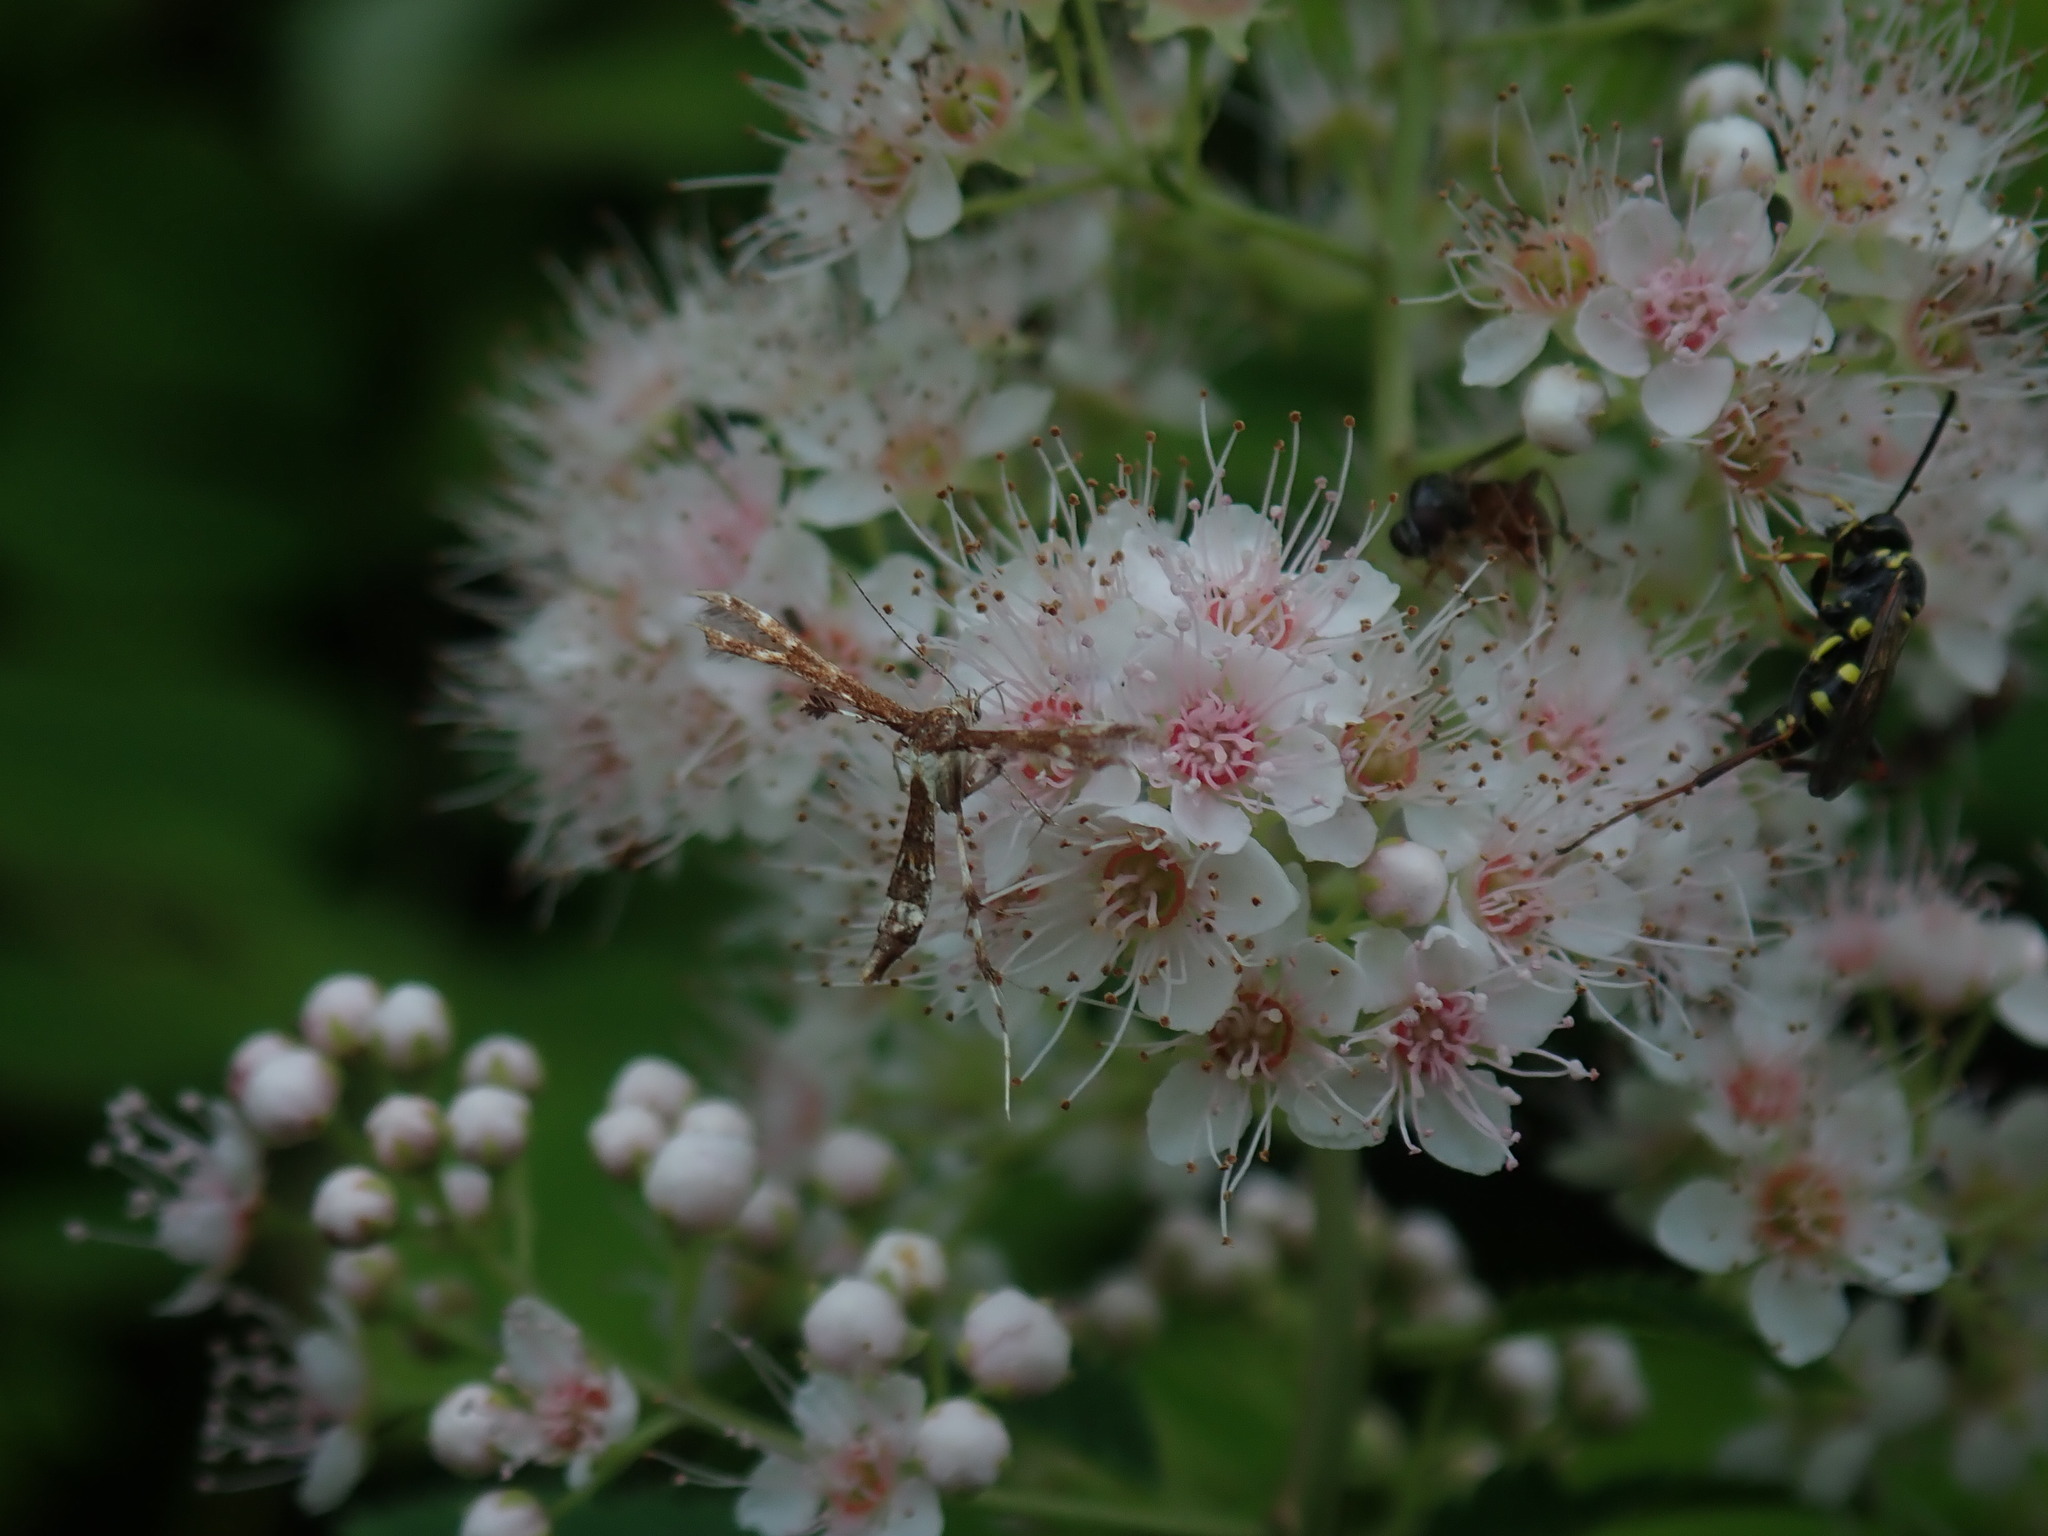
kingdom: Animalia
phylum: Arthropoda
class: Insecta
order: Lepidoptera
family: Pterophoridae
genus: Geina
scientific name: Geina
